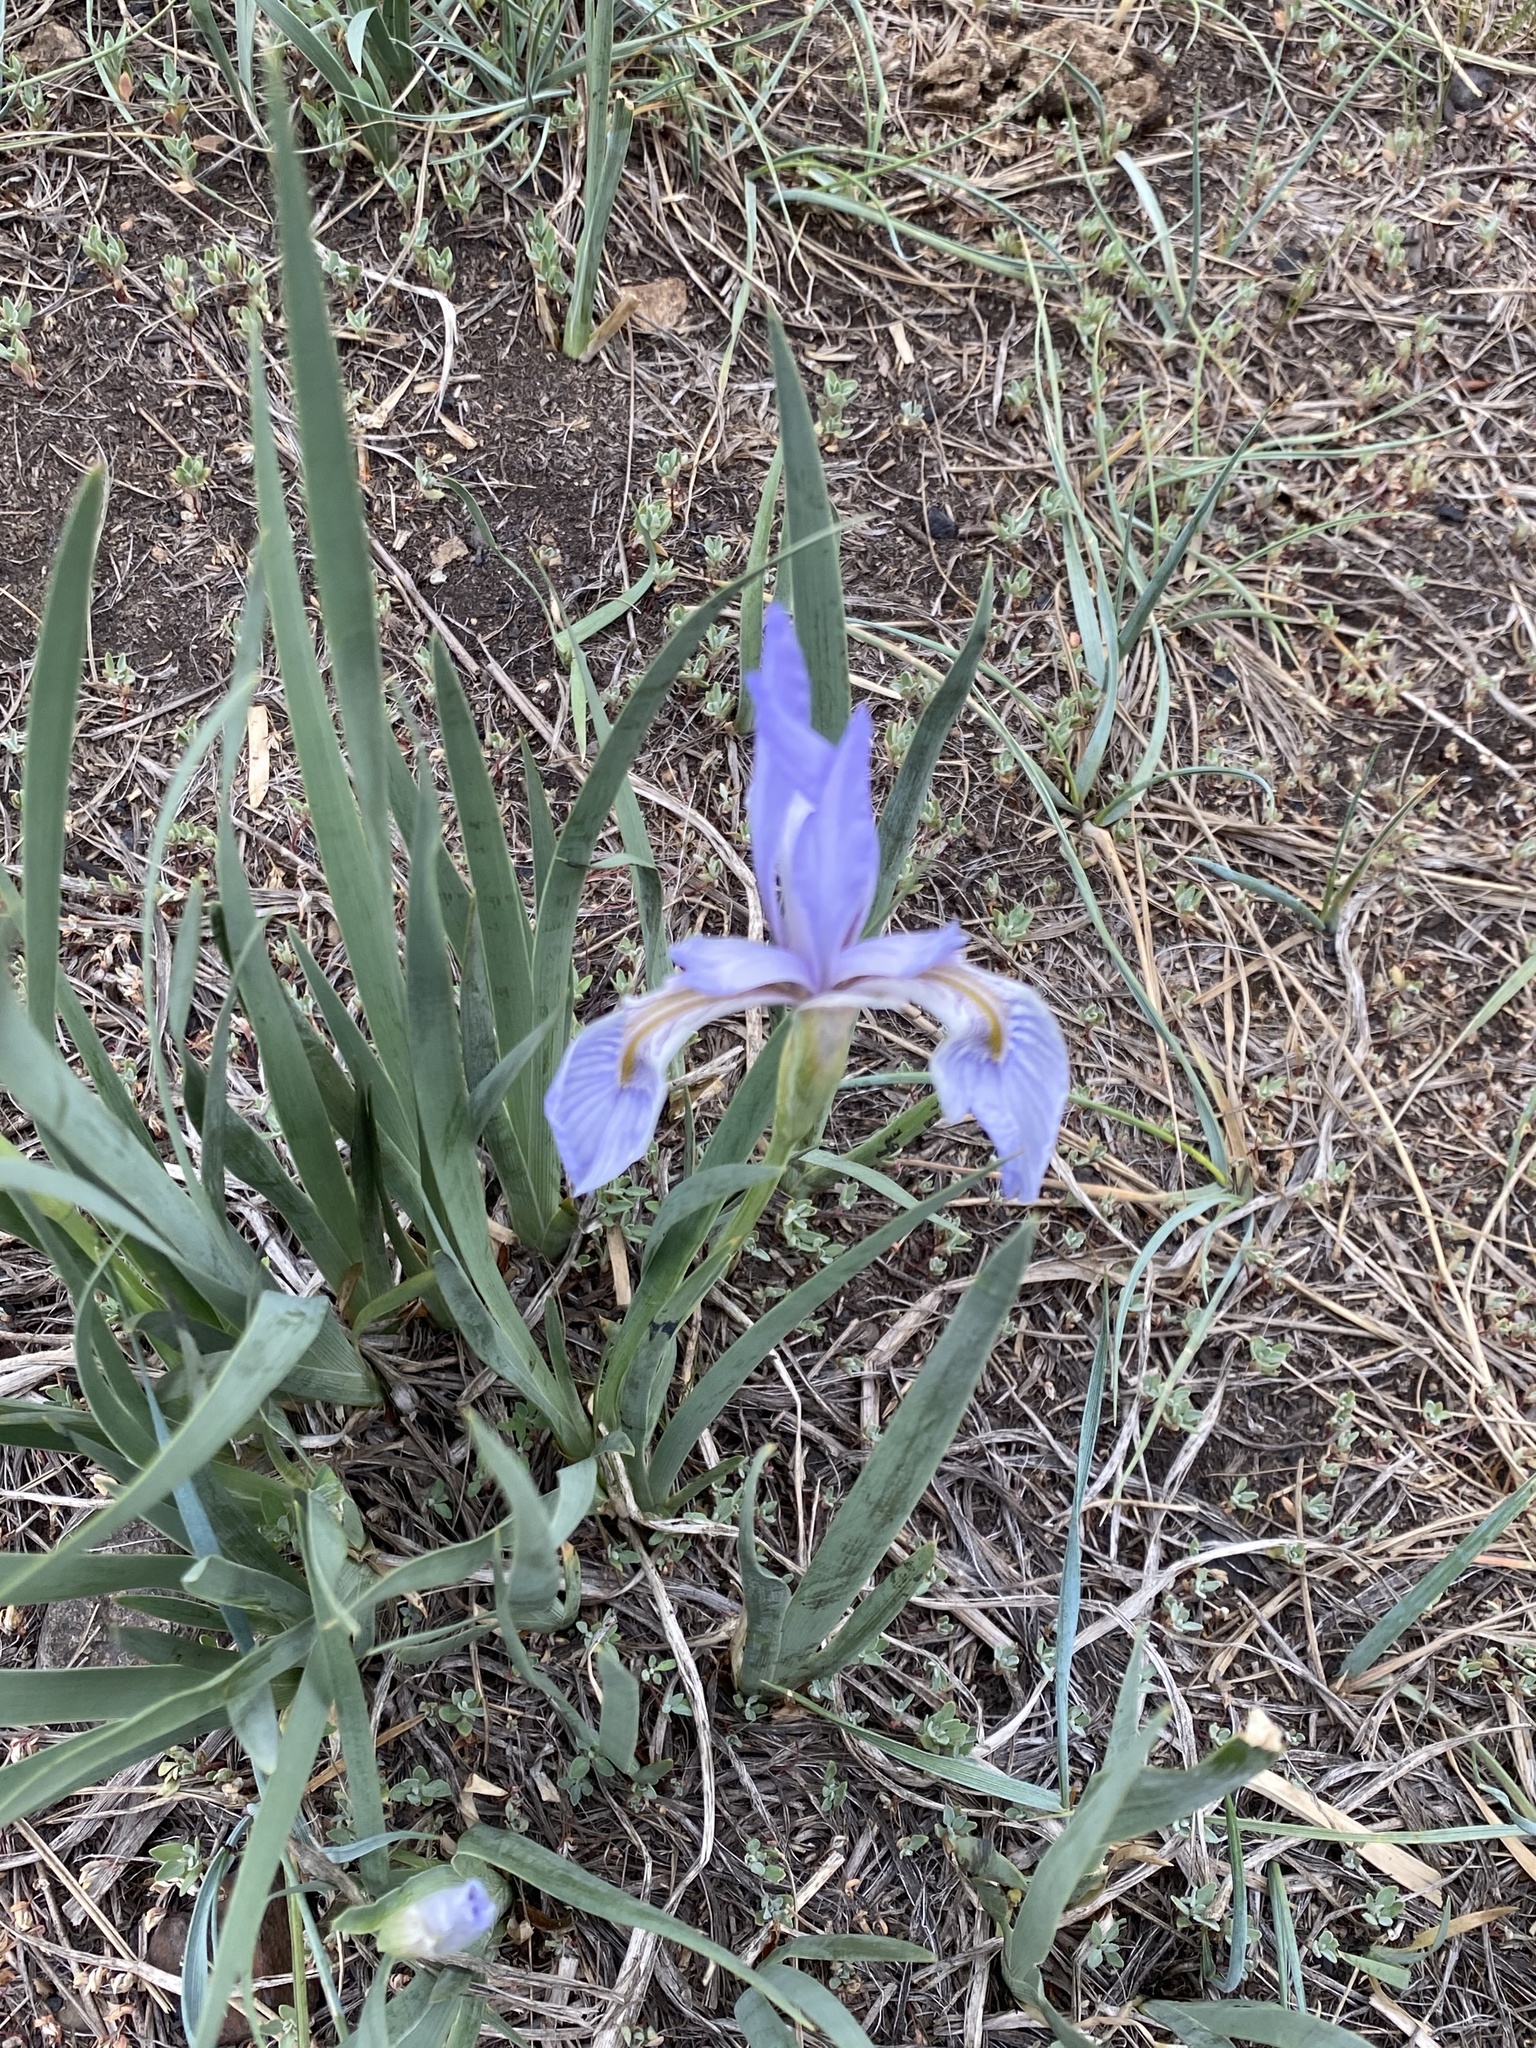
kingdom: Plantae
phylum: Tracheophyta
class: Liliopsida
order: Asparagales
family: Iridaceae
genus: Iris
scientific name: Iris missouriensis
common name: Rocky mountain iris
